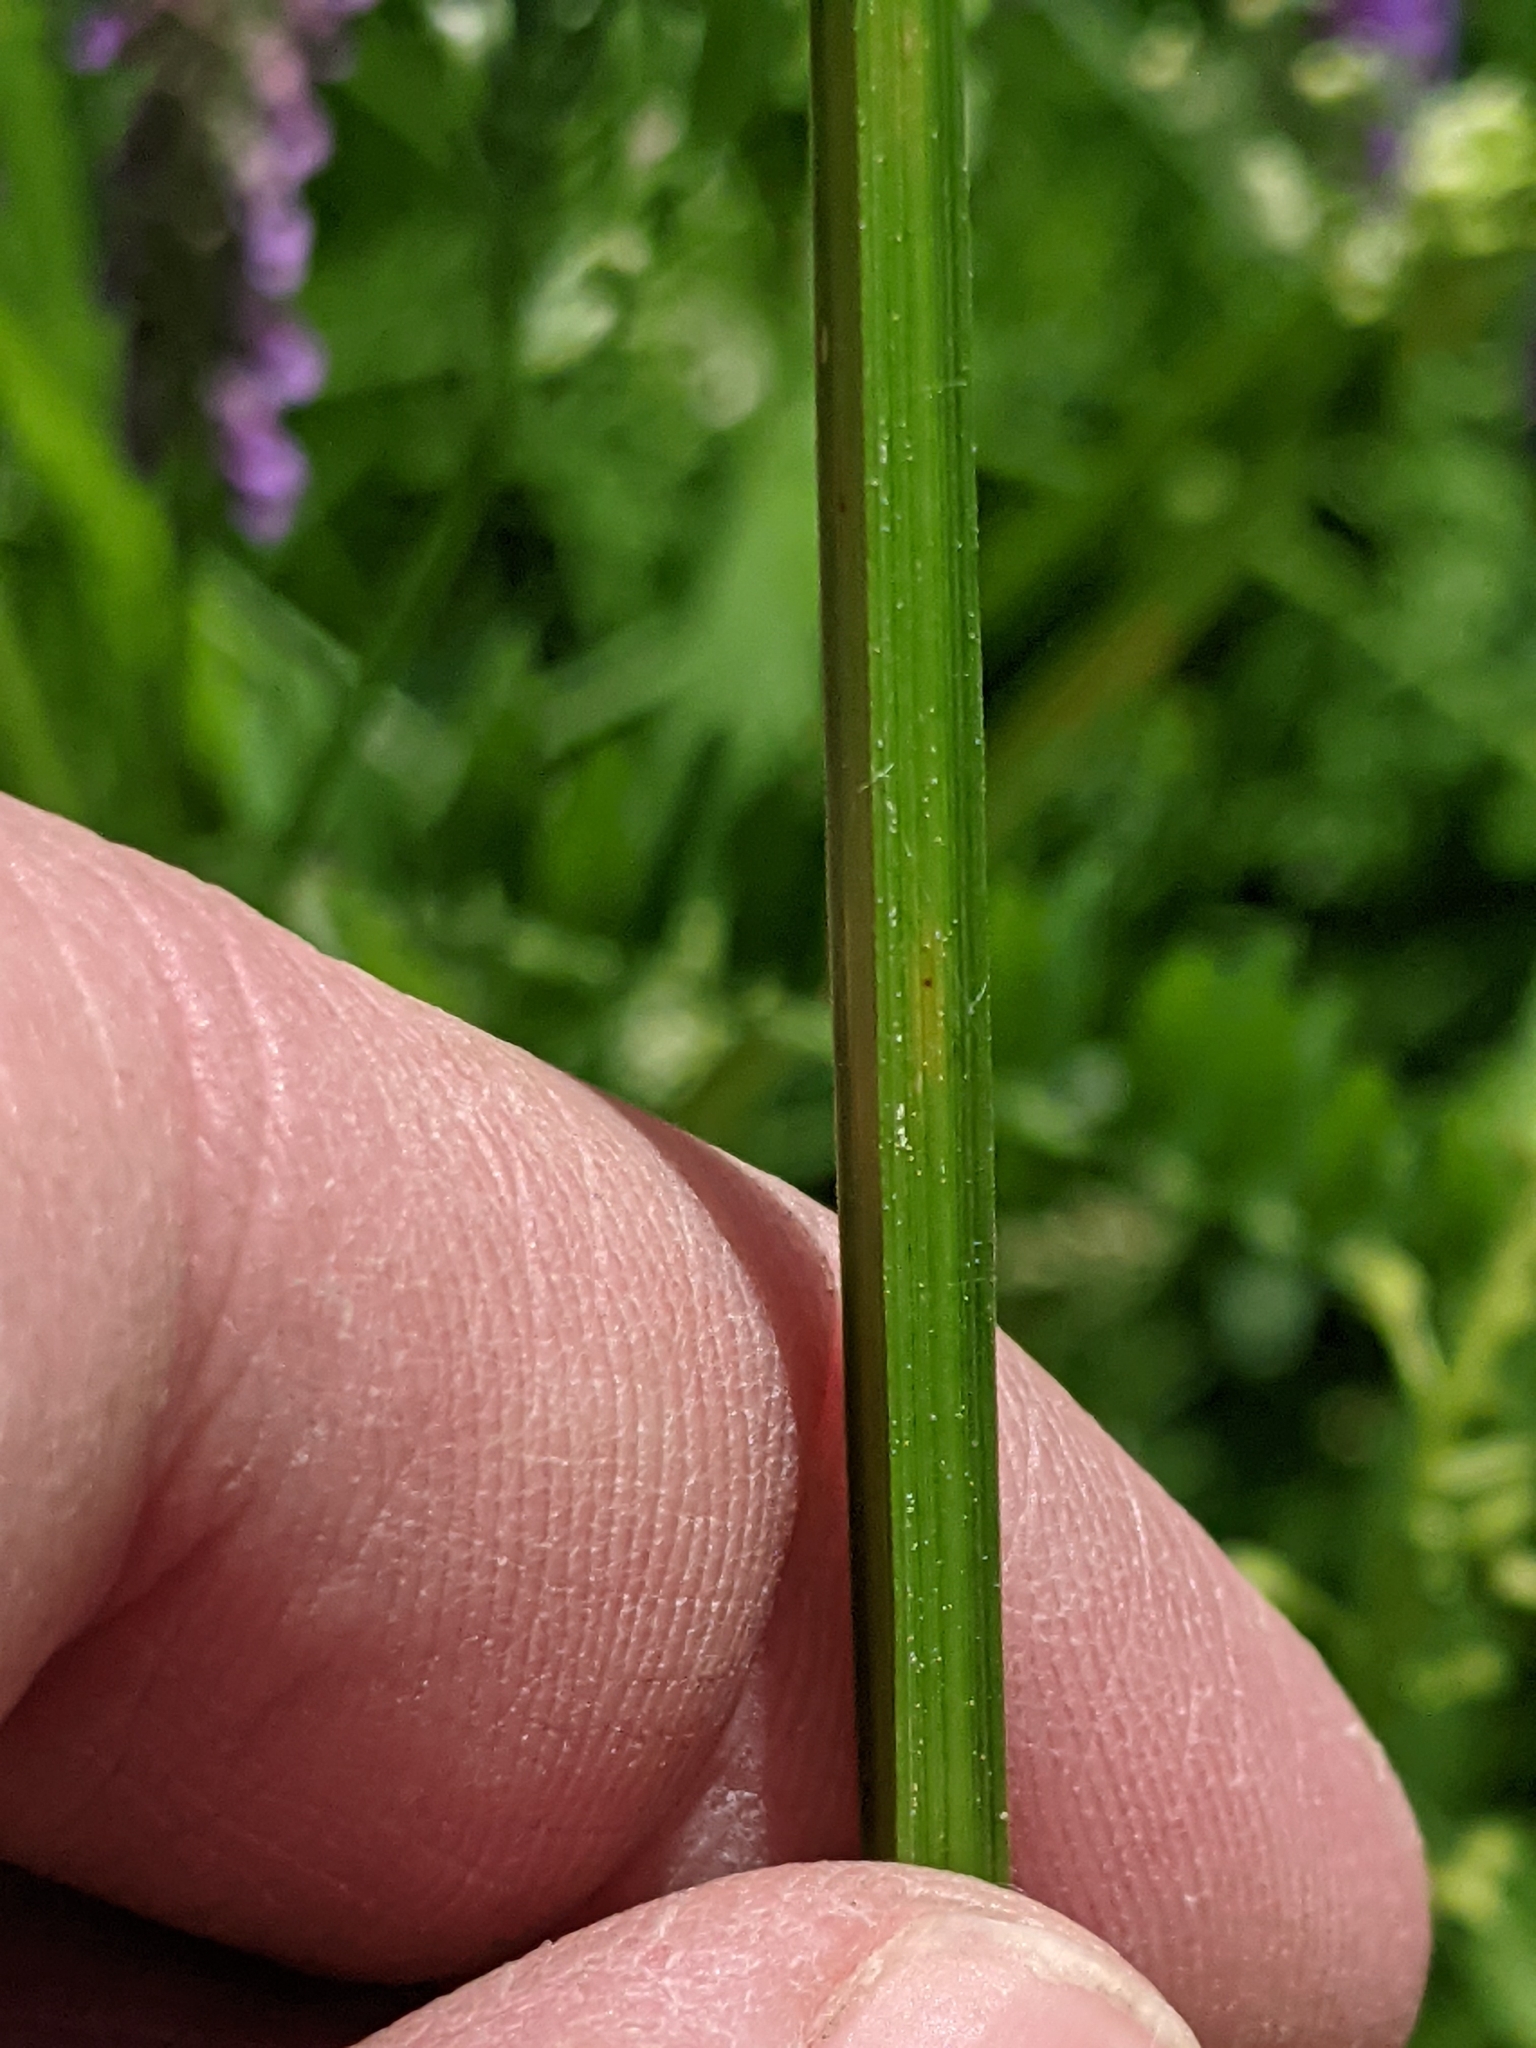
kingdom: Plantae
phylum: Tracheophyta
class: Liliopsida
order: Poales
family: Cyperaceae
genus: Carex
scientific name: Carex stipata
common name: Awl-fruited sedge
